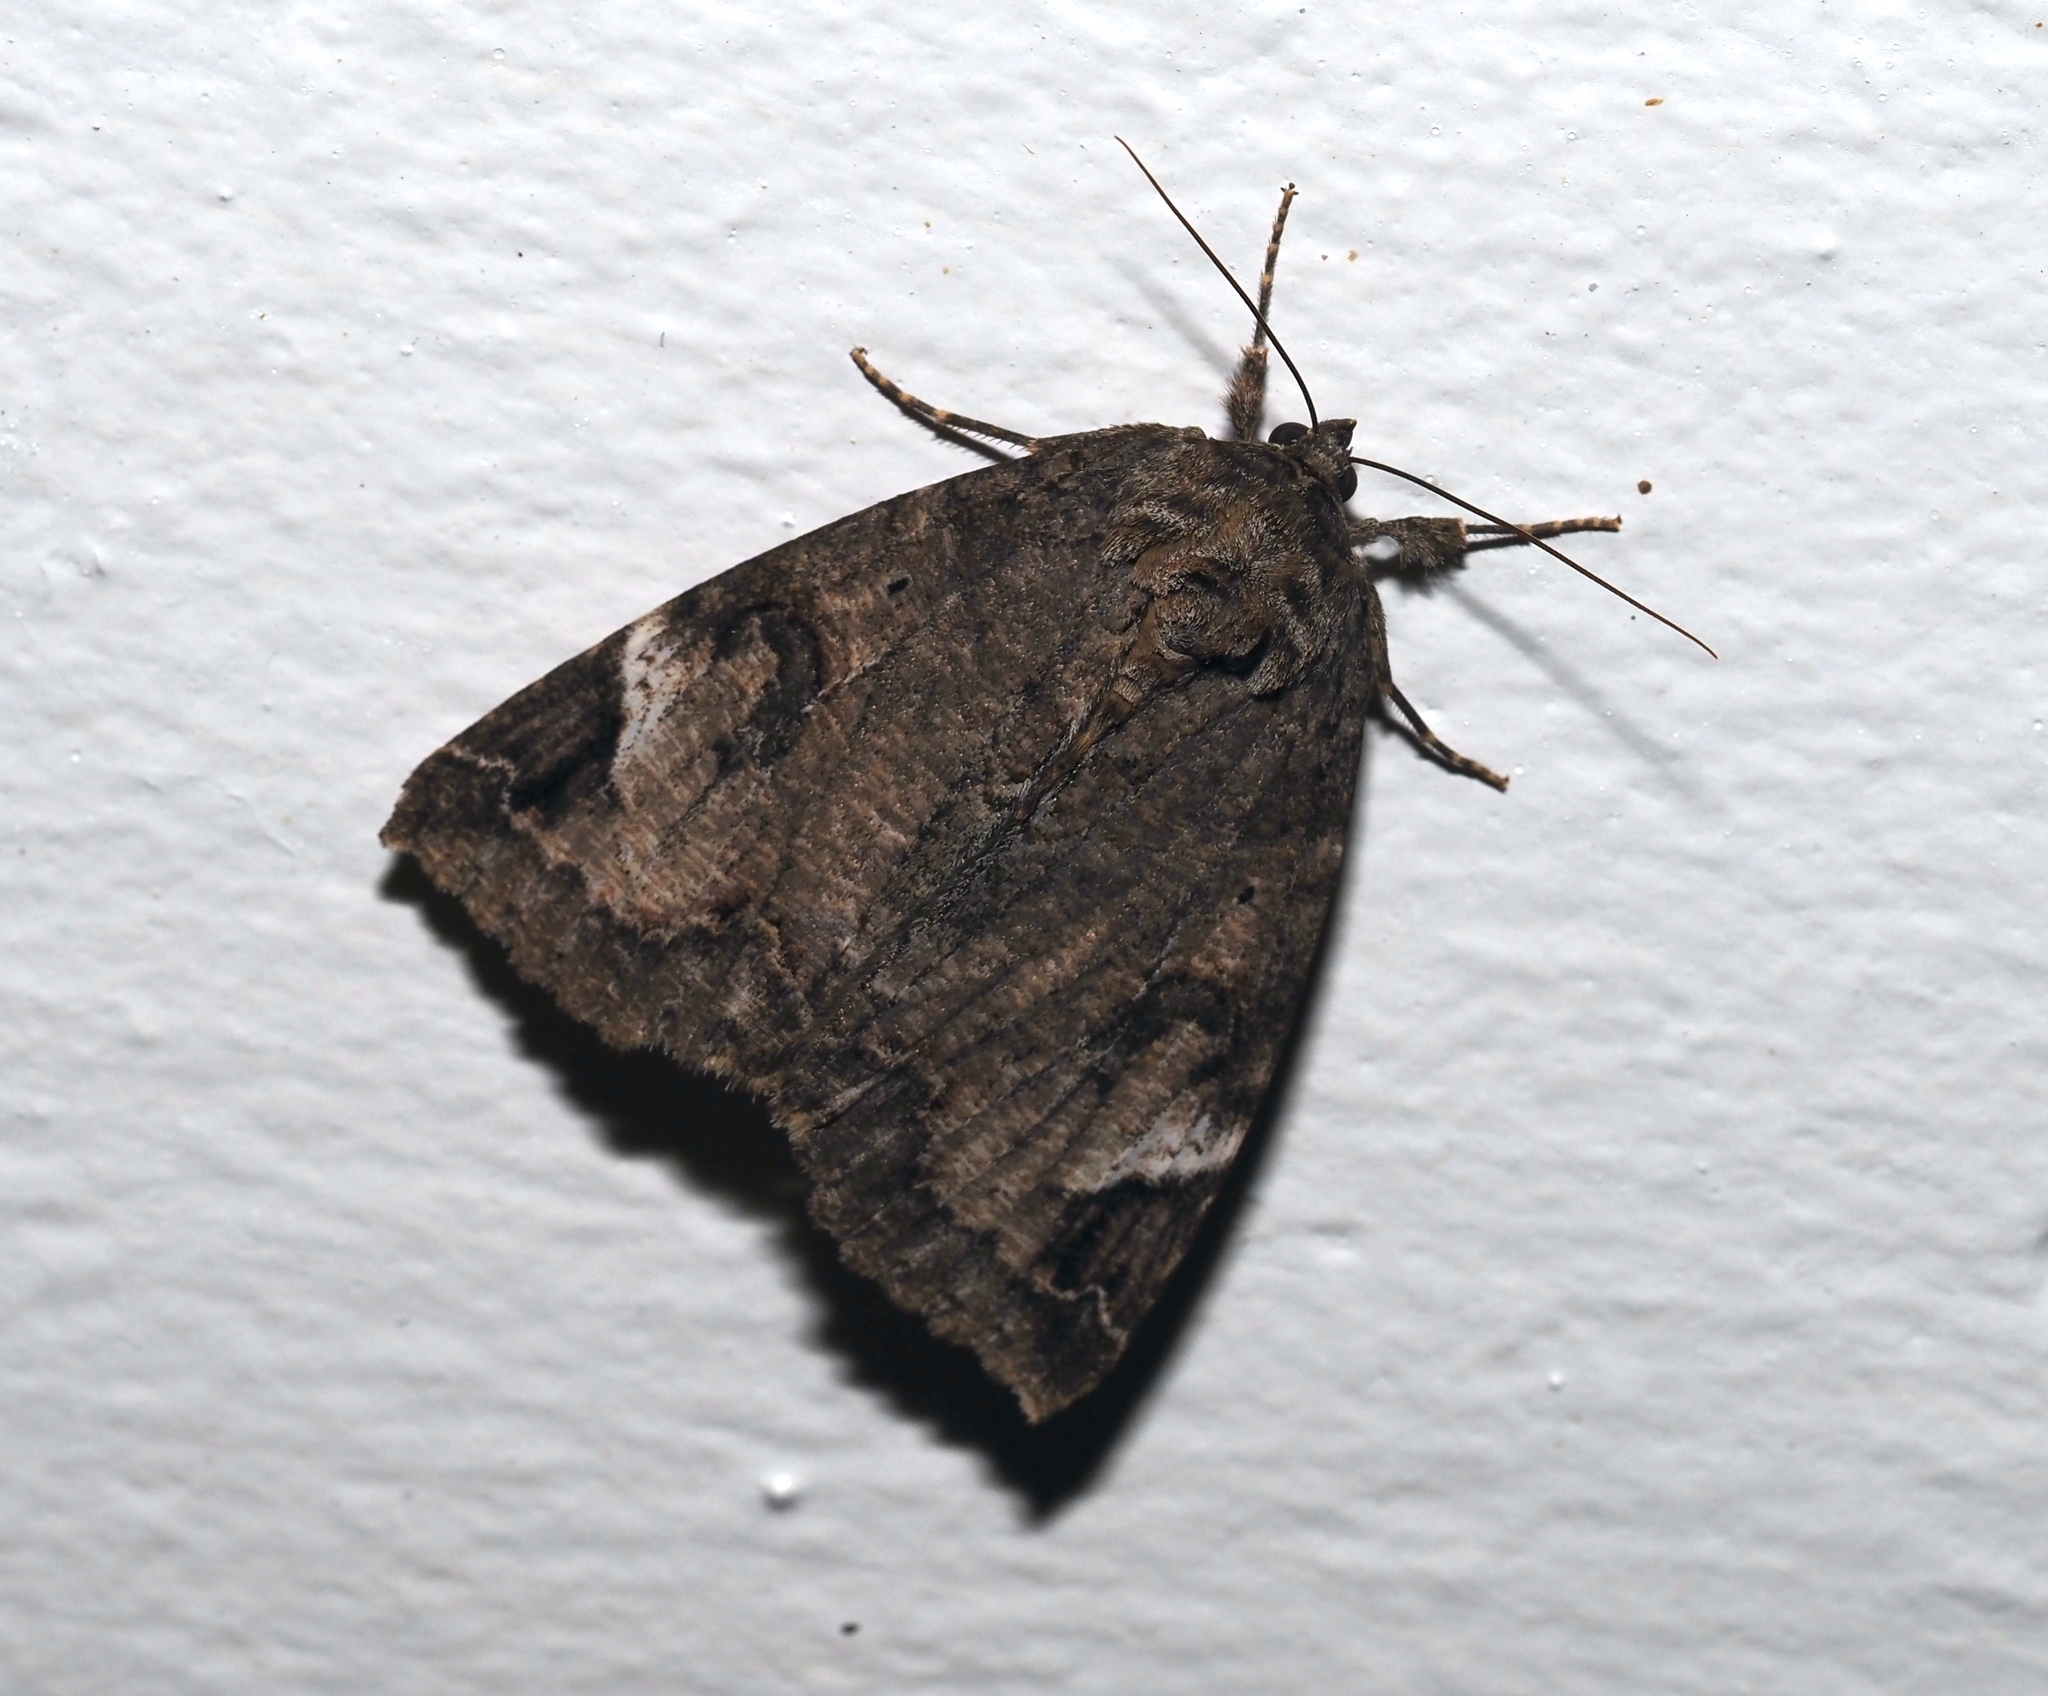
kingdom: Animalia
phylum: Arthropoda
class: Insecta
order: Lepidoptera
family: Erebidae
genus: Euparthenos
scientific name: Euparthenos nubilis
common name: Locust underwing
